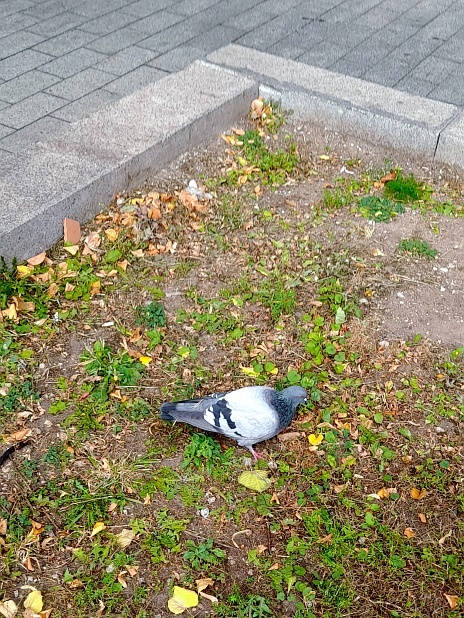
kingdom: Animalia
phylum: Chordata
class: Aves
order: Columbiformes
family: Columbidae
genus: Columba
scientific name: Columba livia
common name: Rock pigeon
